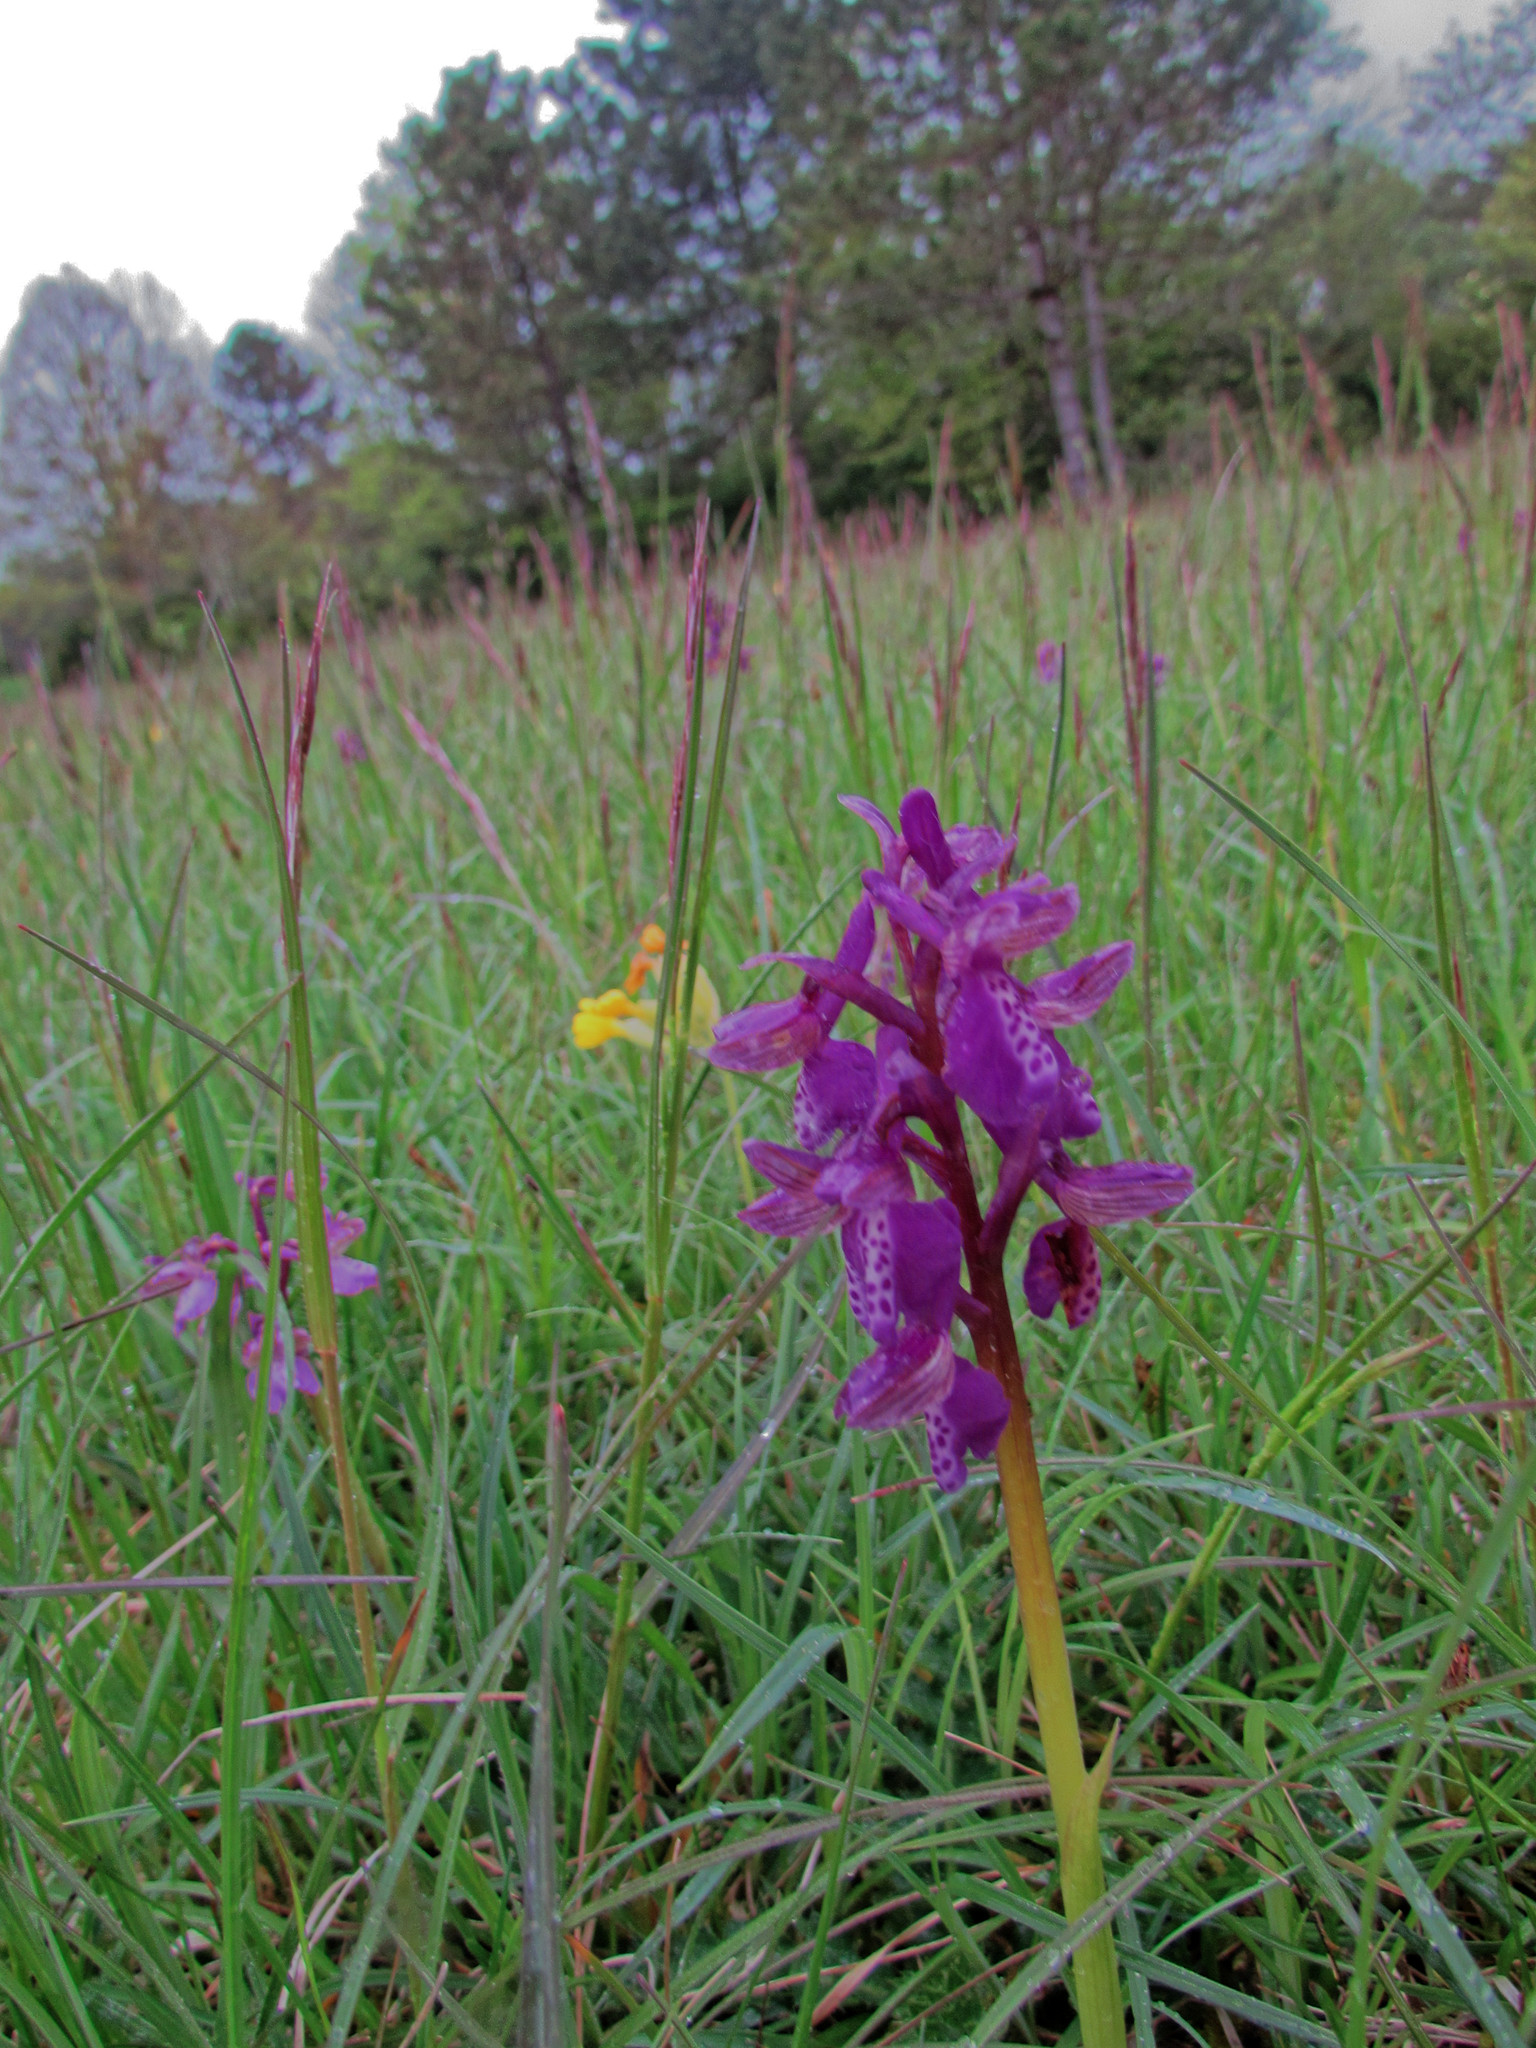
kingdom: Plantae
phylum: Tracheophyta
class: Liliopsida
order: Asparagales
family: Orchidaceae
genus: Anacamptis
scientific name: Anacamptis morio
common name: Green-winged orchid
